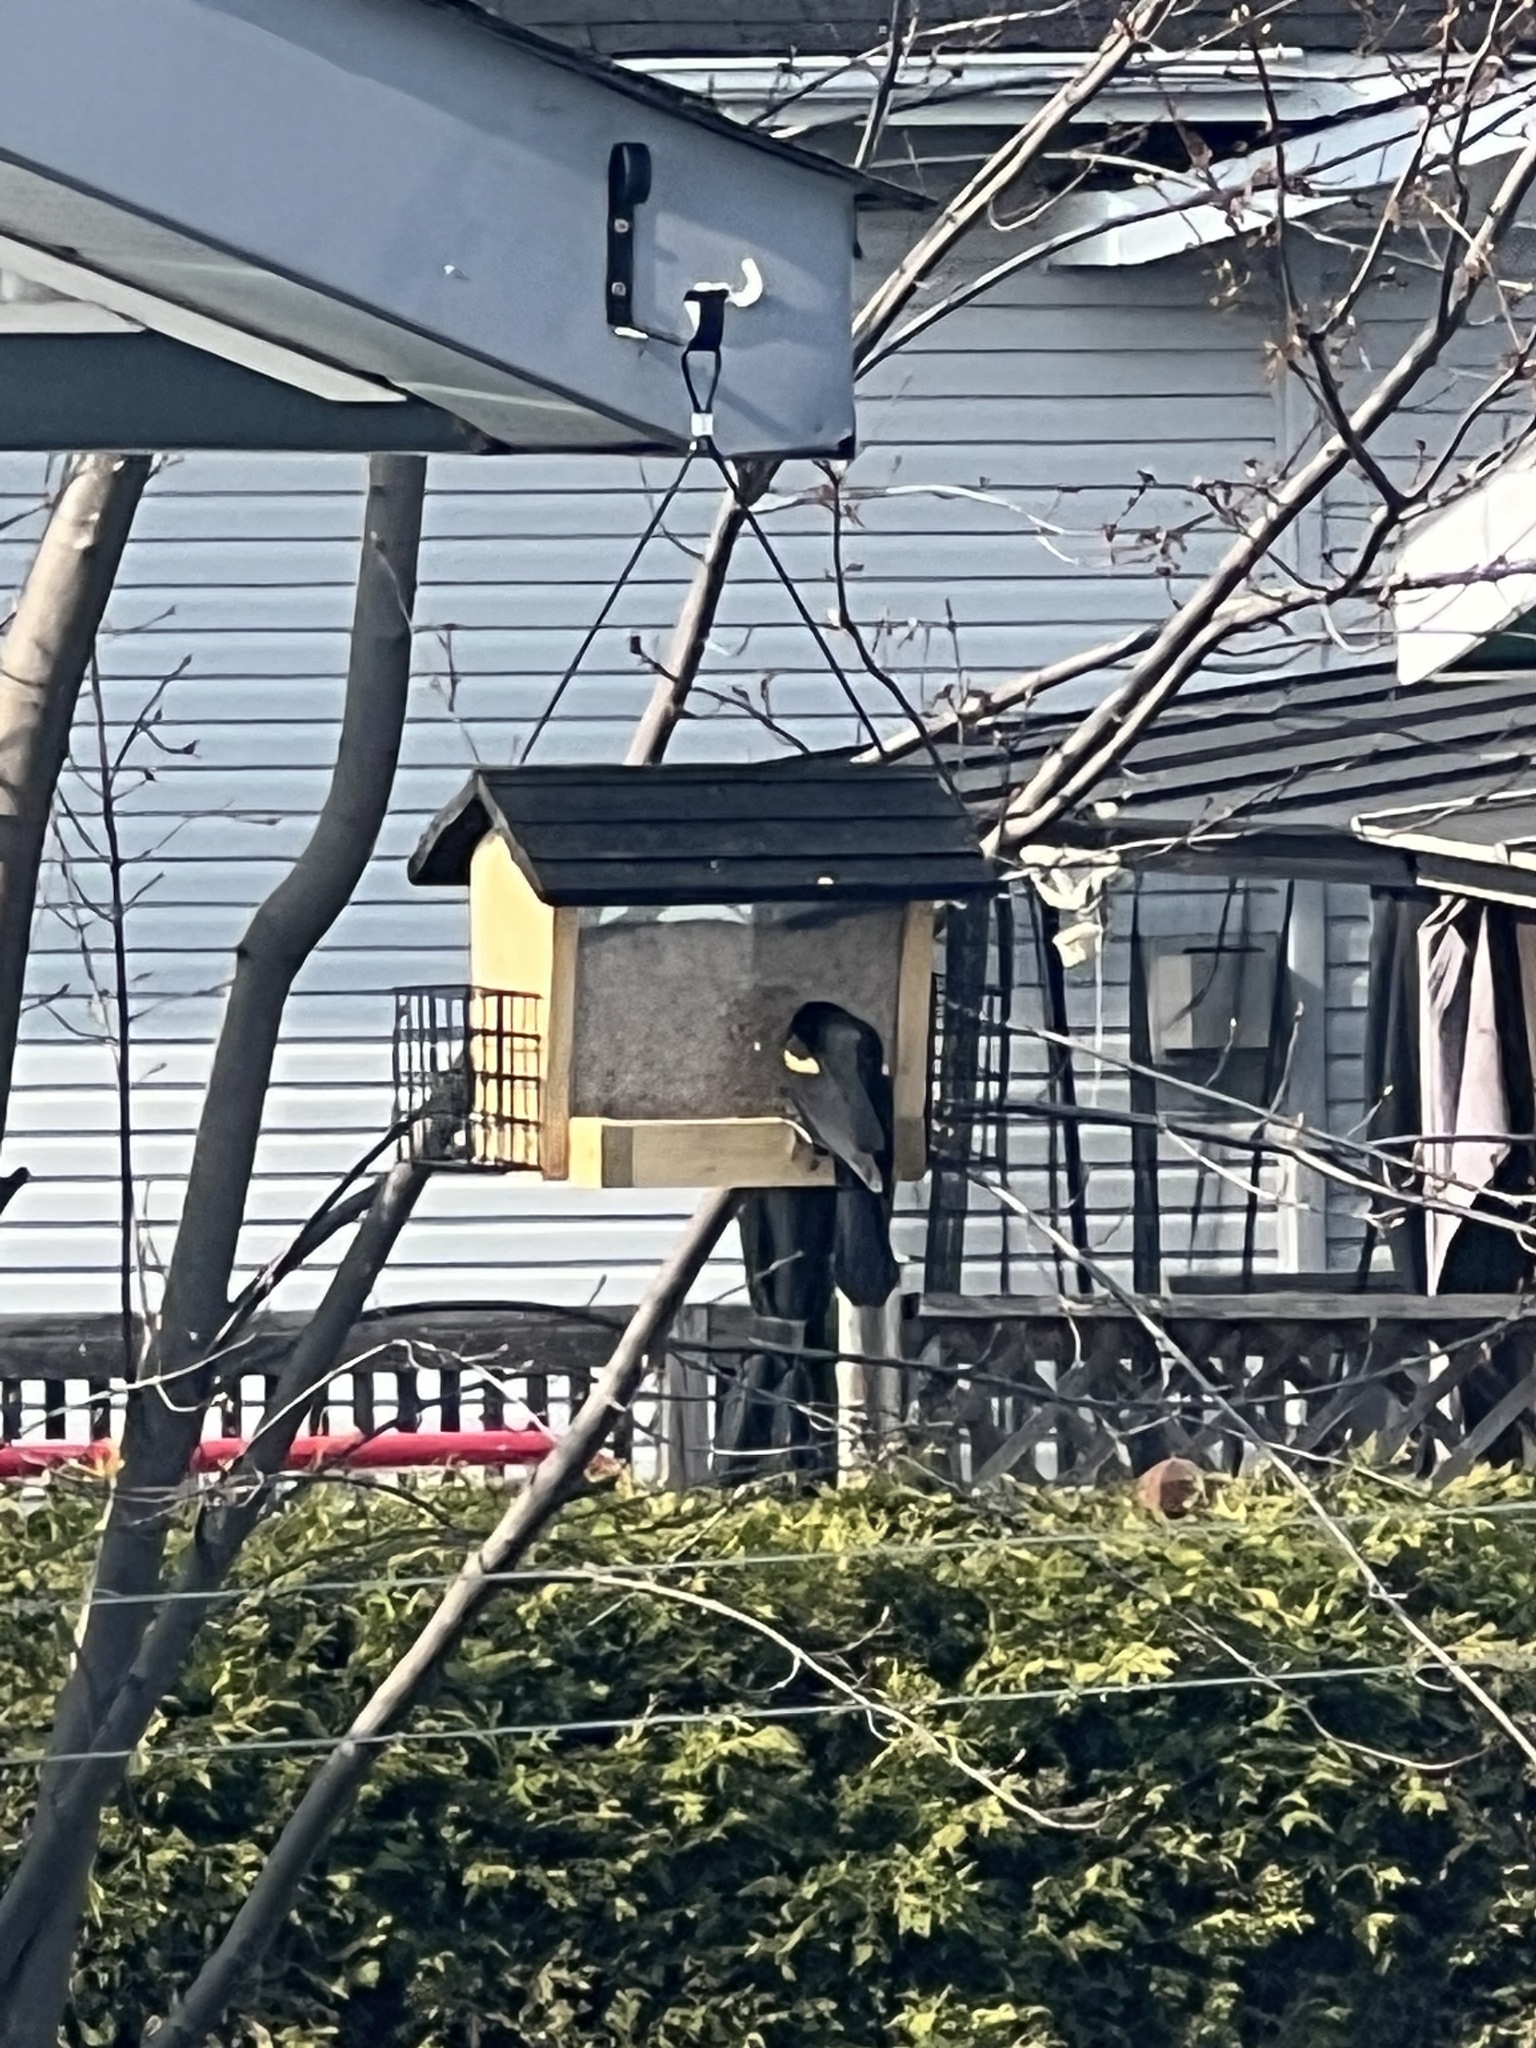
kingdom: Animalia
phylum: Chordata
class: Aves
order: Passeriformes
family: Icteridae
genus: Agelaius
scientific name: Agelaius phoeniceus
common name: Red-winged blackbird
